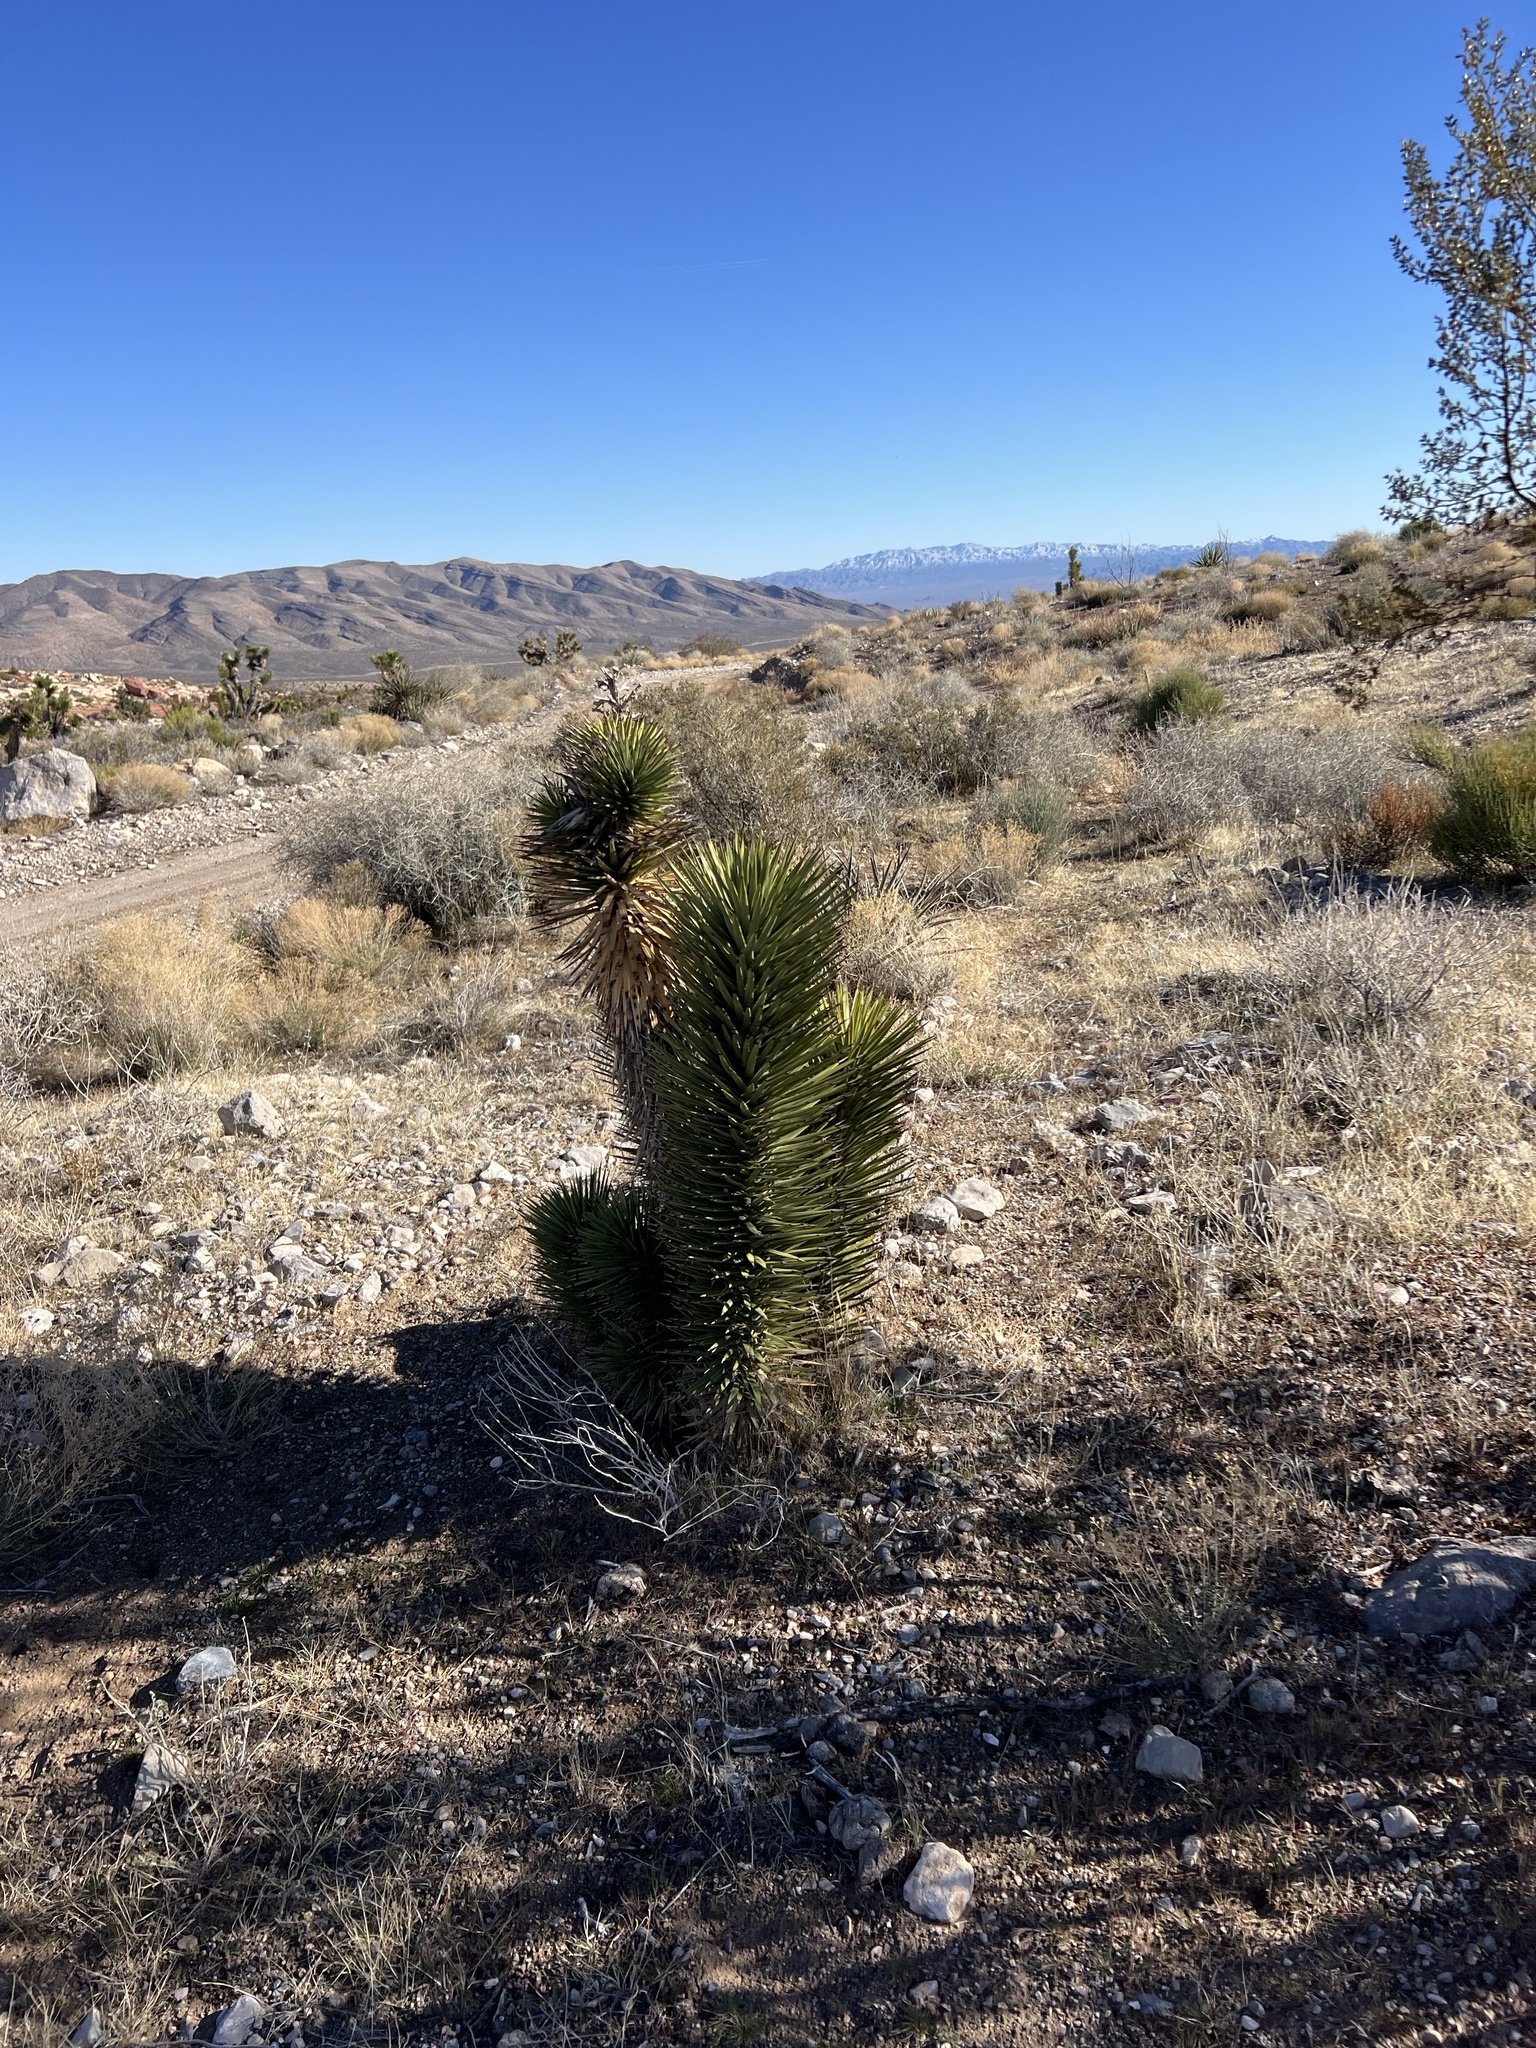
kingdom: Plantae
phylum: Tracheophyta
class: Liliopsida
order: Asparagales
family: Asparagaceae
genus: Yucca
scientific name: Yucca brevifolia
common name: Joshua tree
